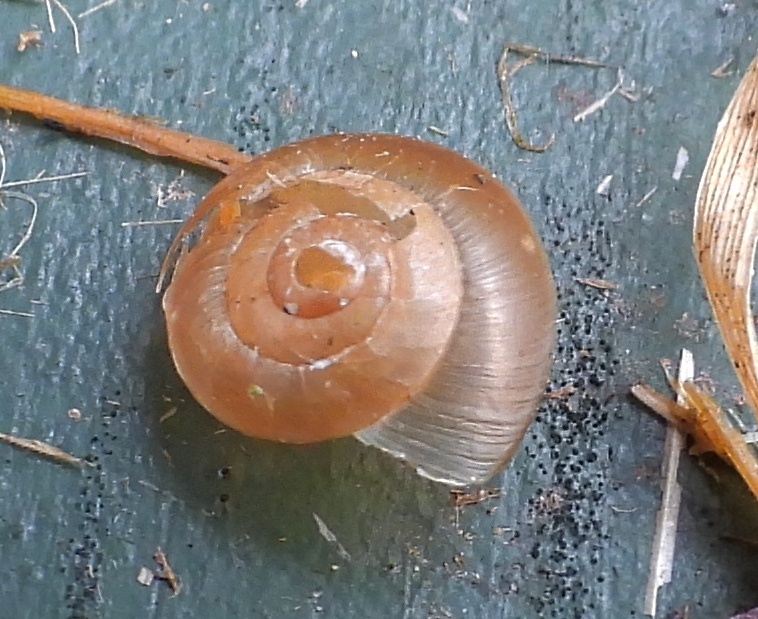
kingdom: Animalia
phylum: Mollusca
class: Gastropoda
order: Stylommatophora
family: Hygromiidae
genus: Hygromia
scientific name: Hygromia cinctella
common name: Girdled snail
